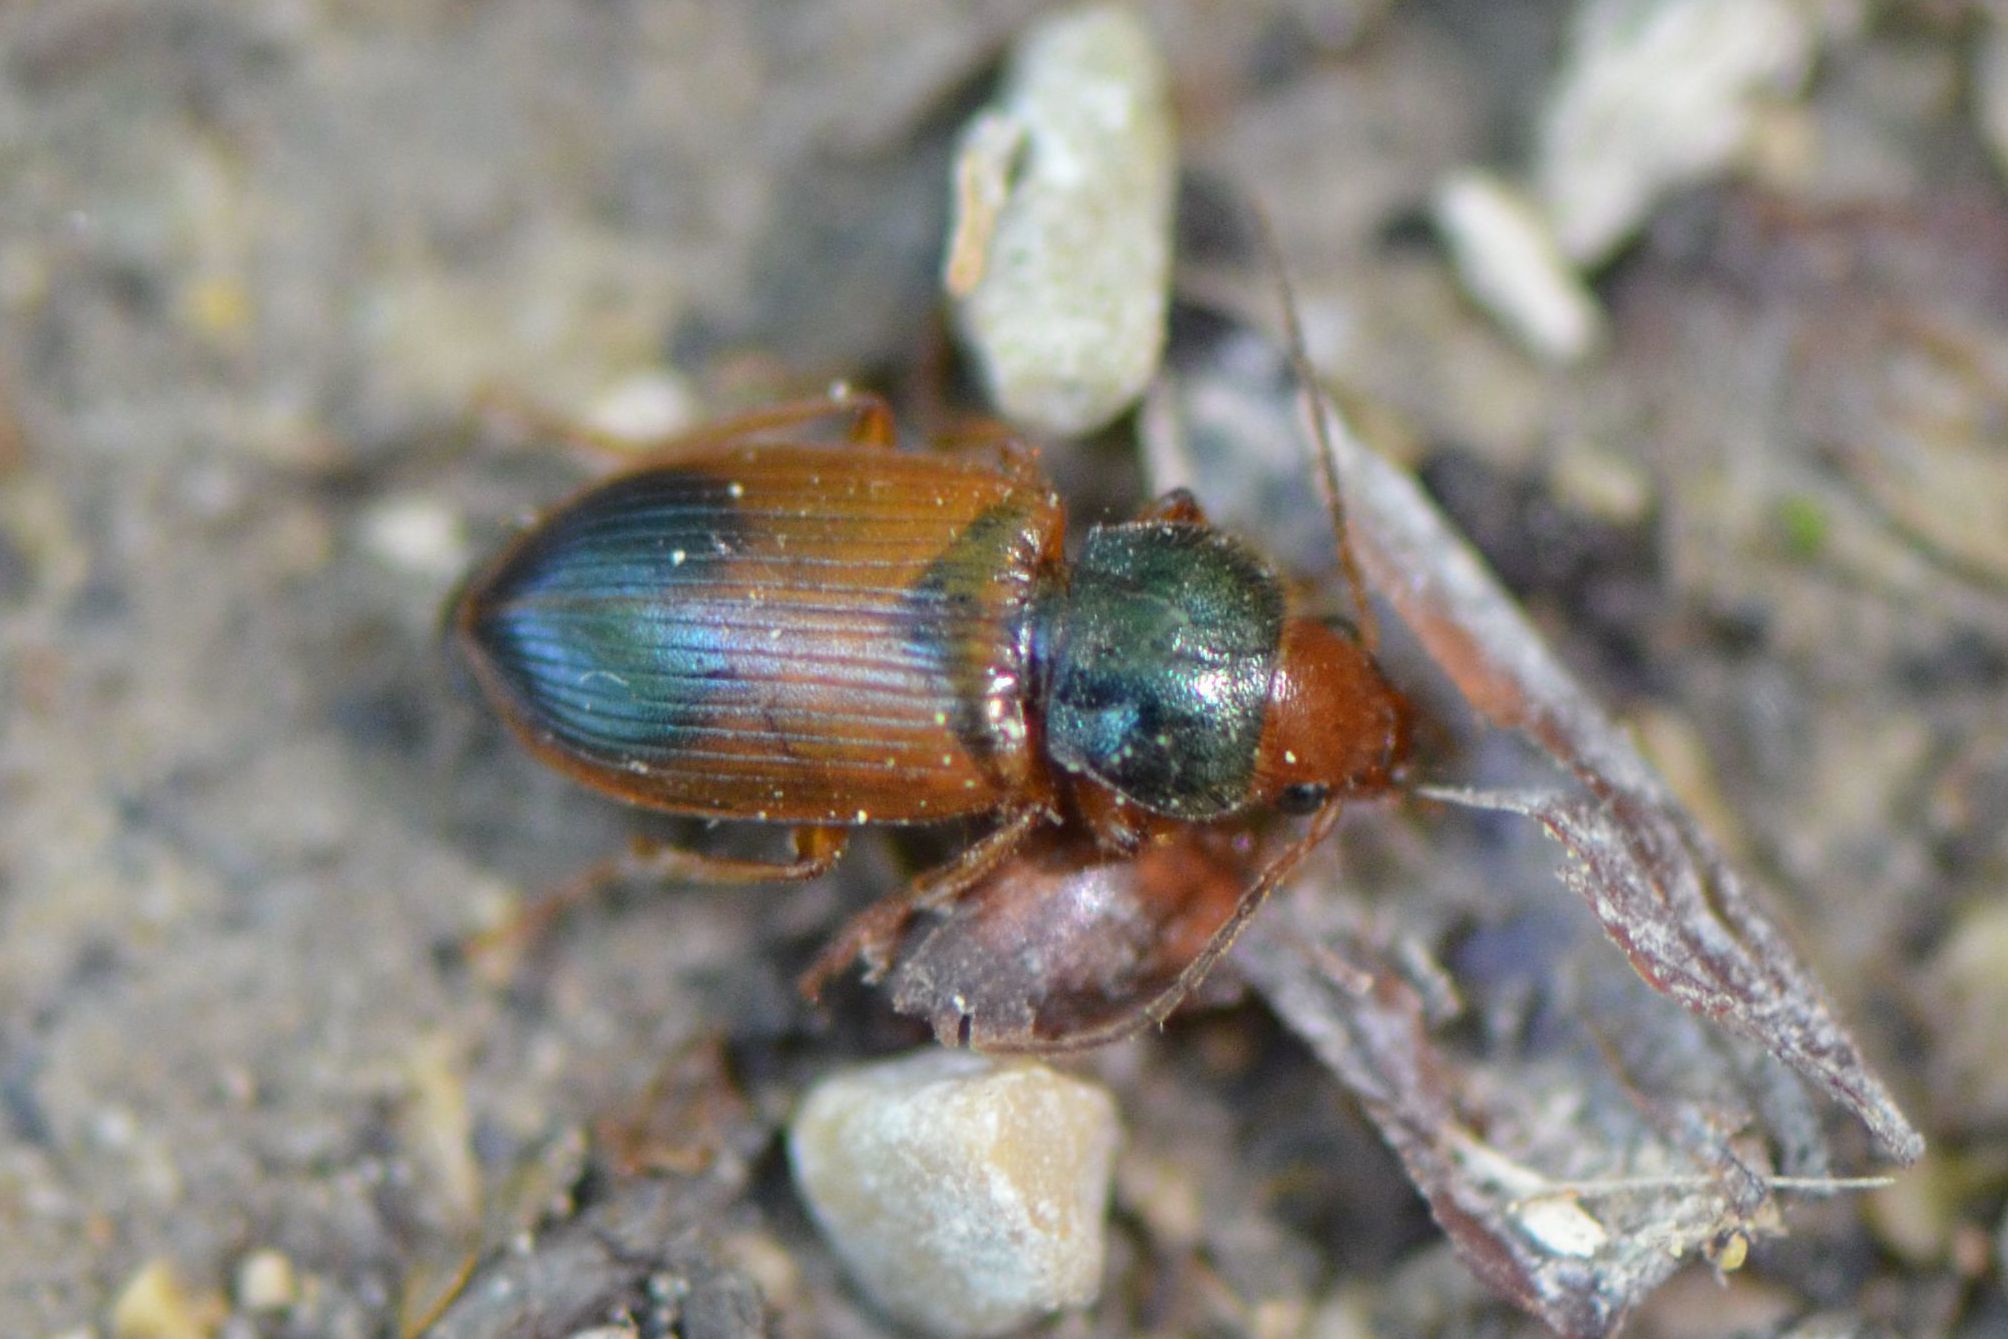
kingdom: Animalia
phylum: Arthropoda
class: Insecta
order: Coleoptera
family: Carabidae
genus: Diachromus
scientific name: Diachromus germanus
